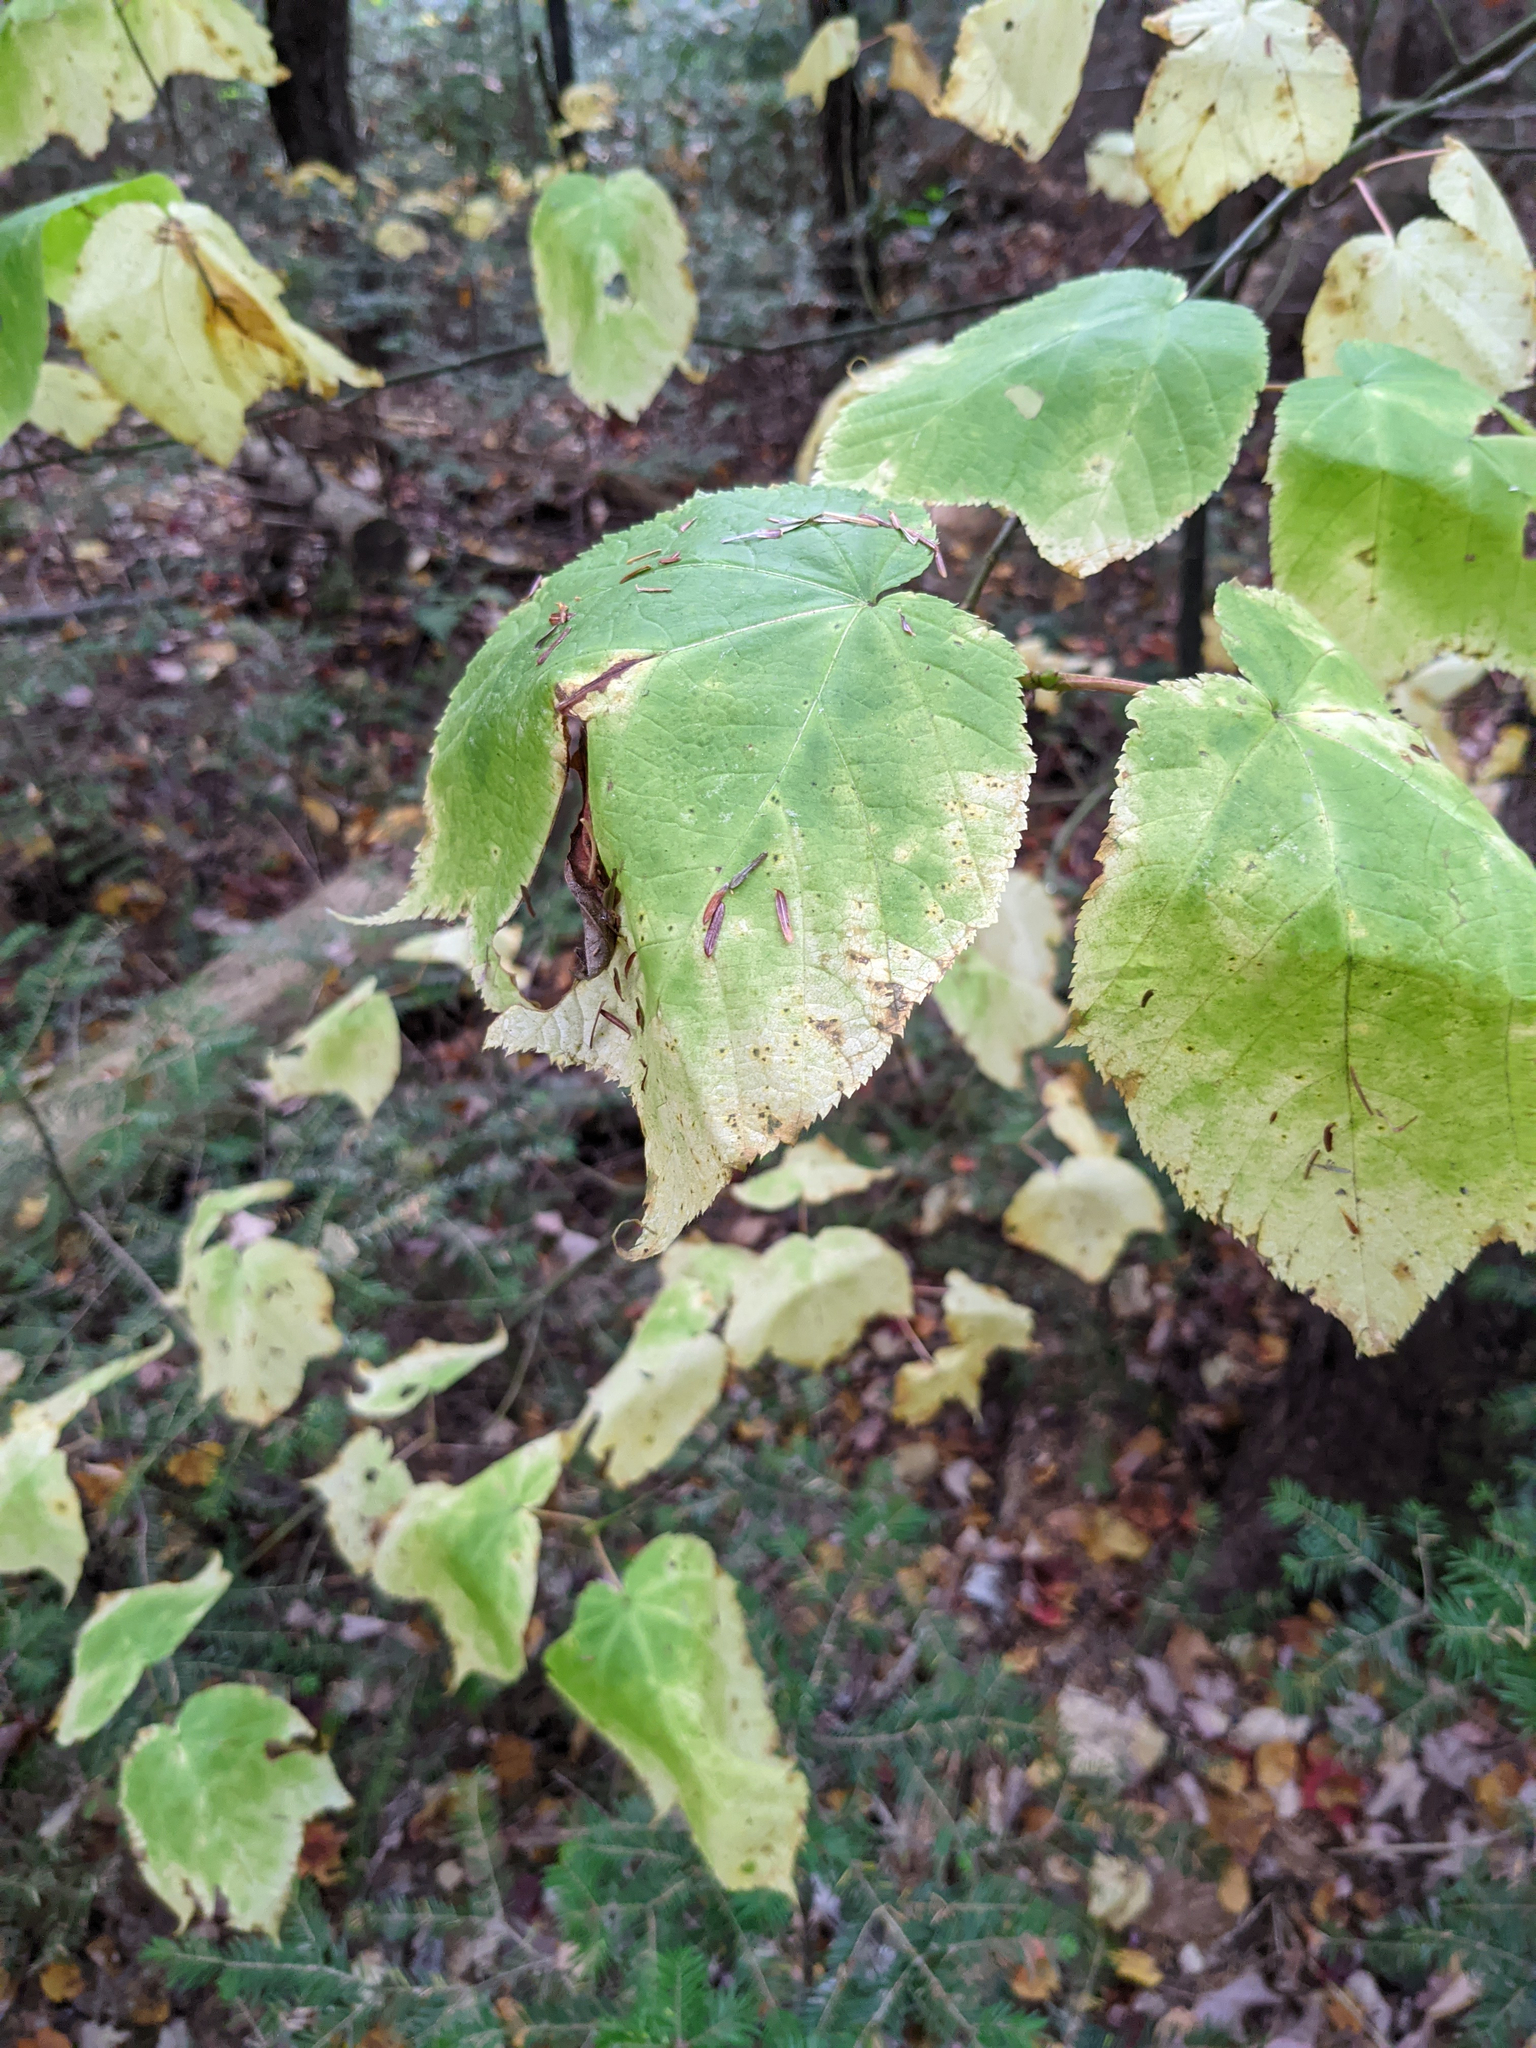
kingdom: Plantae
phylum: Tracheophyta
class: Magnoliopsida
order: Sapindales
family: Sapindaceae
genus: Acer
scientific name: Acer pensylvanicum
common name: Moosewood
